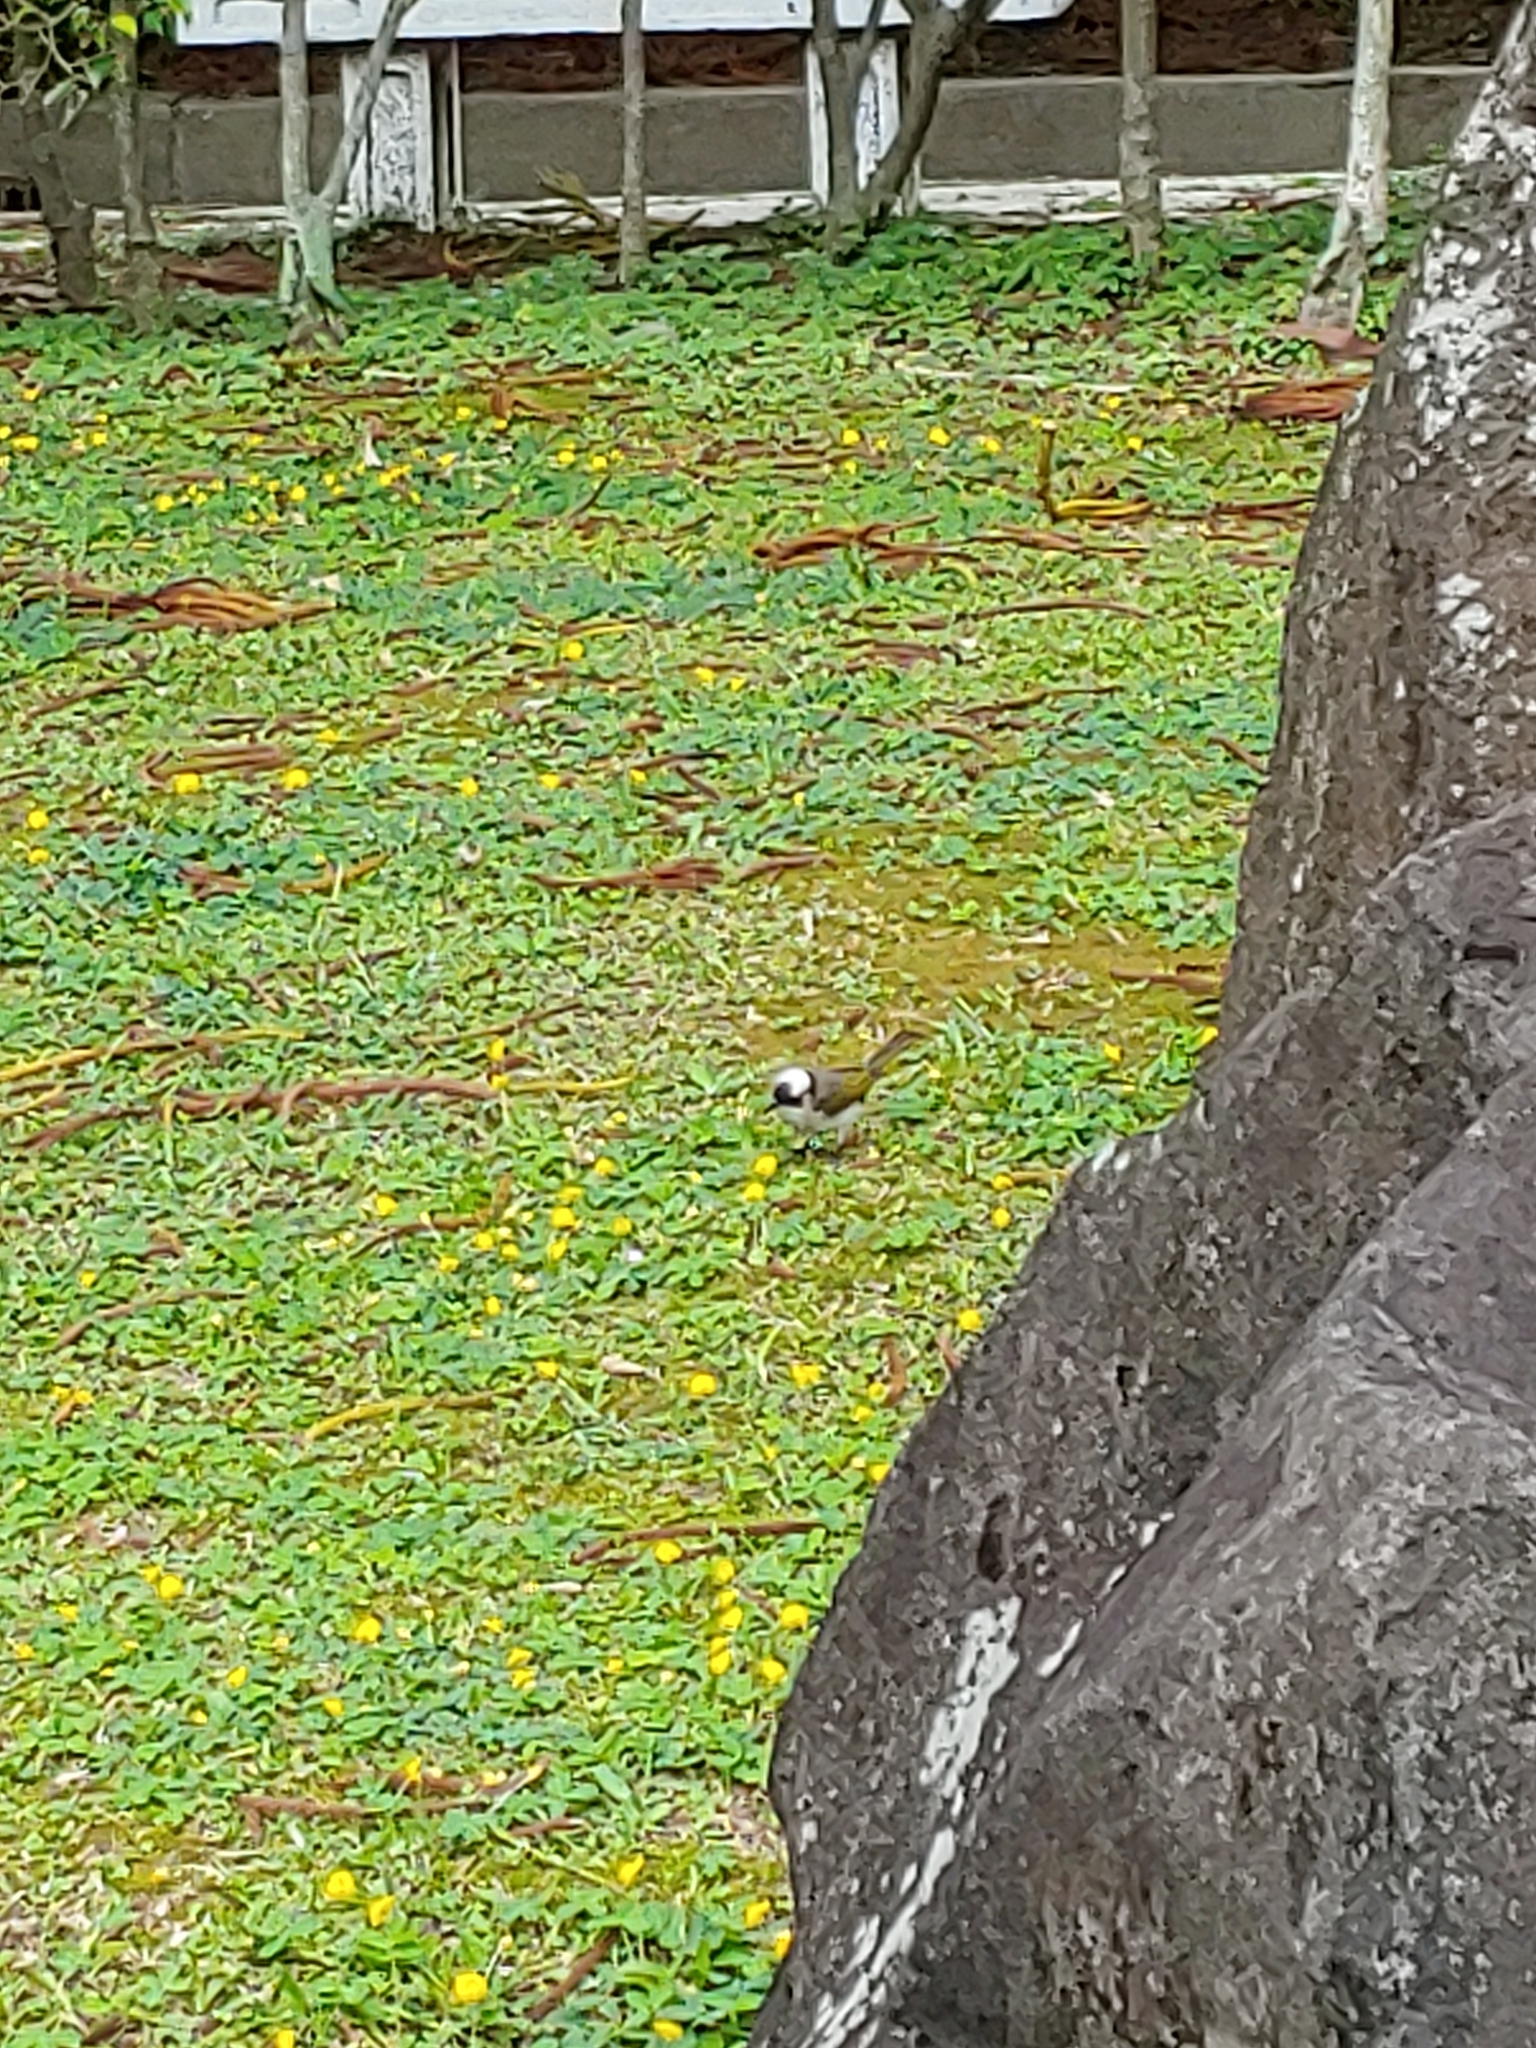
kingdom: Animalia
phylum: Chordata
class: Aves
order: Passeriformes
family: Pycnonotidae
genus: Pycnonotus
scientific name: Pycnonotus sinensis
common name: Light-vented bulbul
